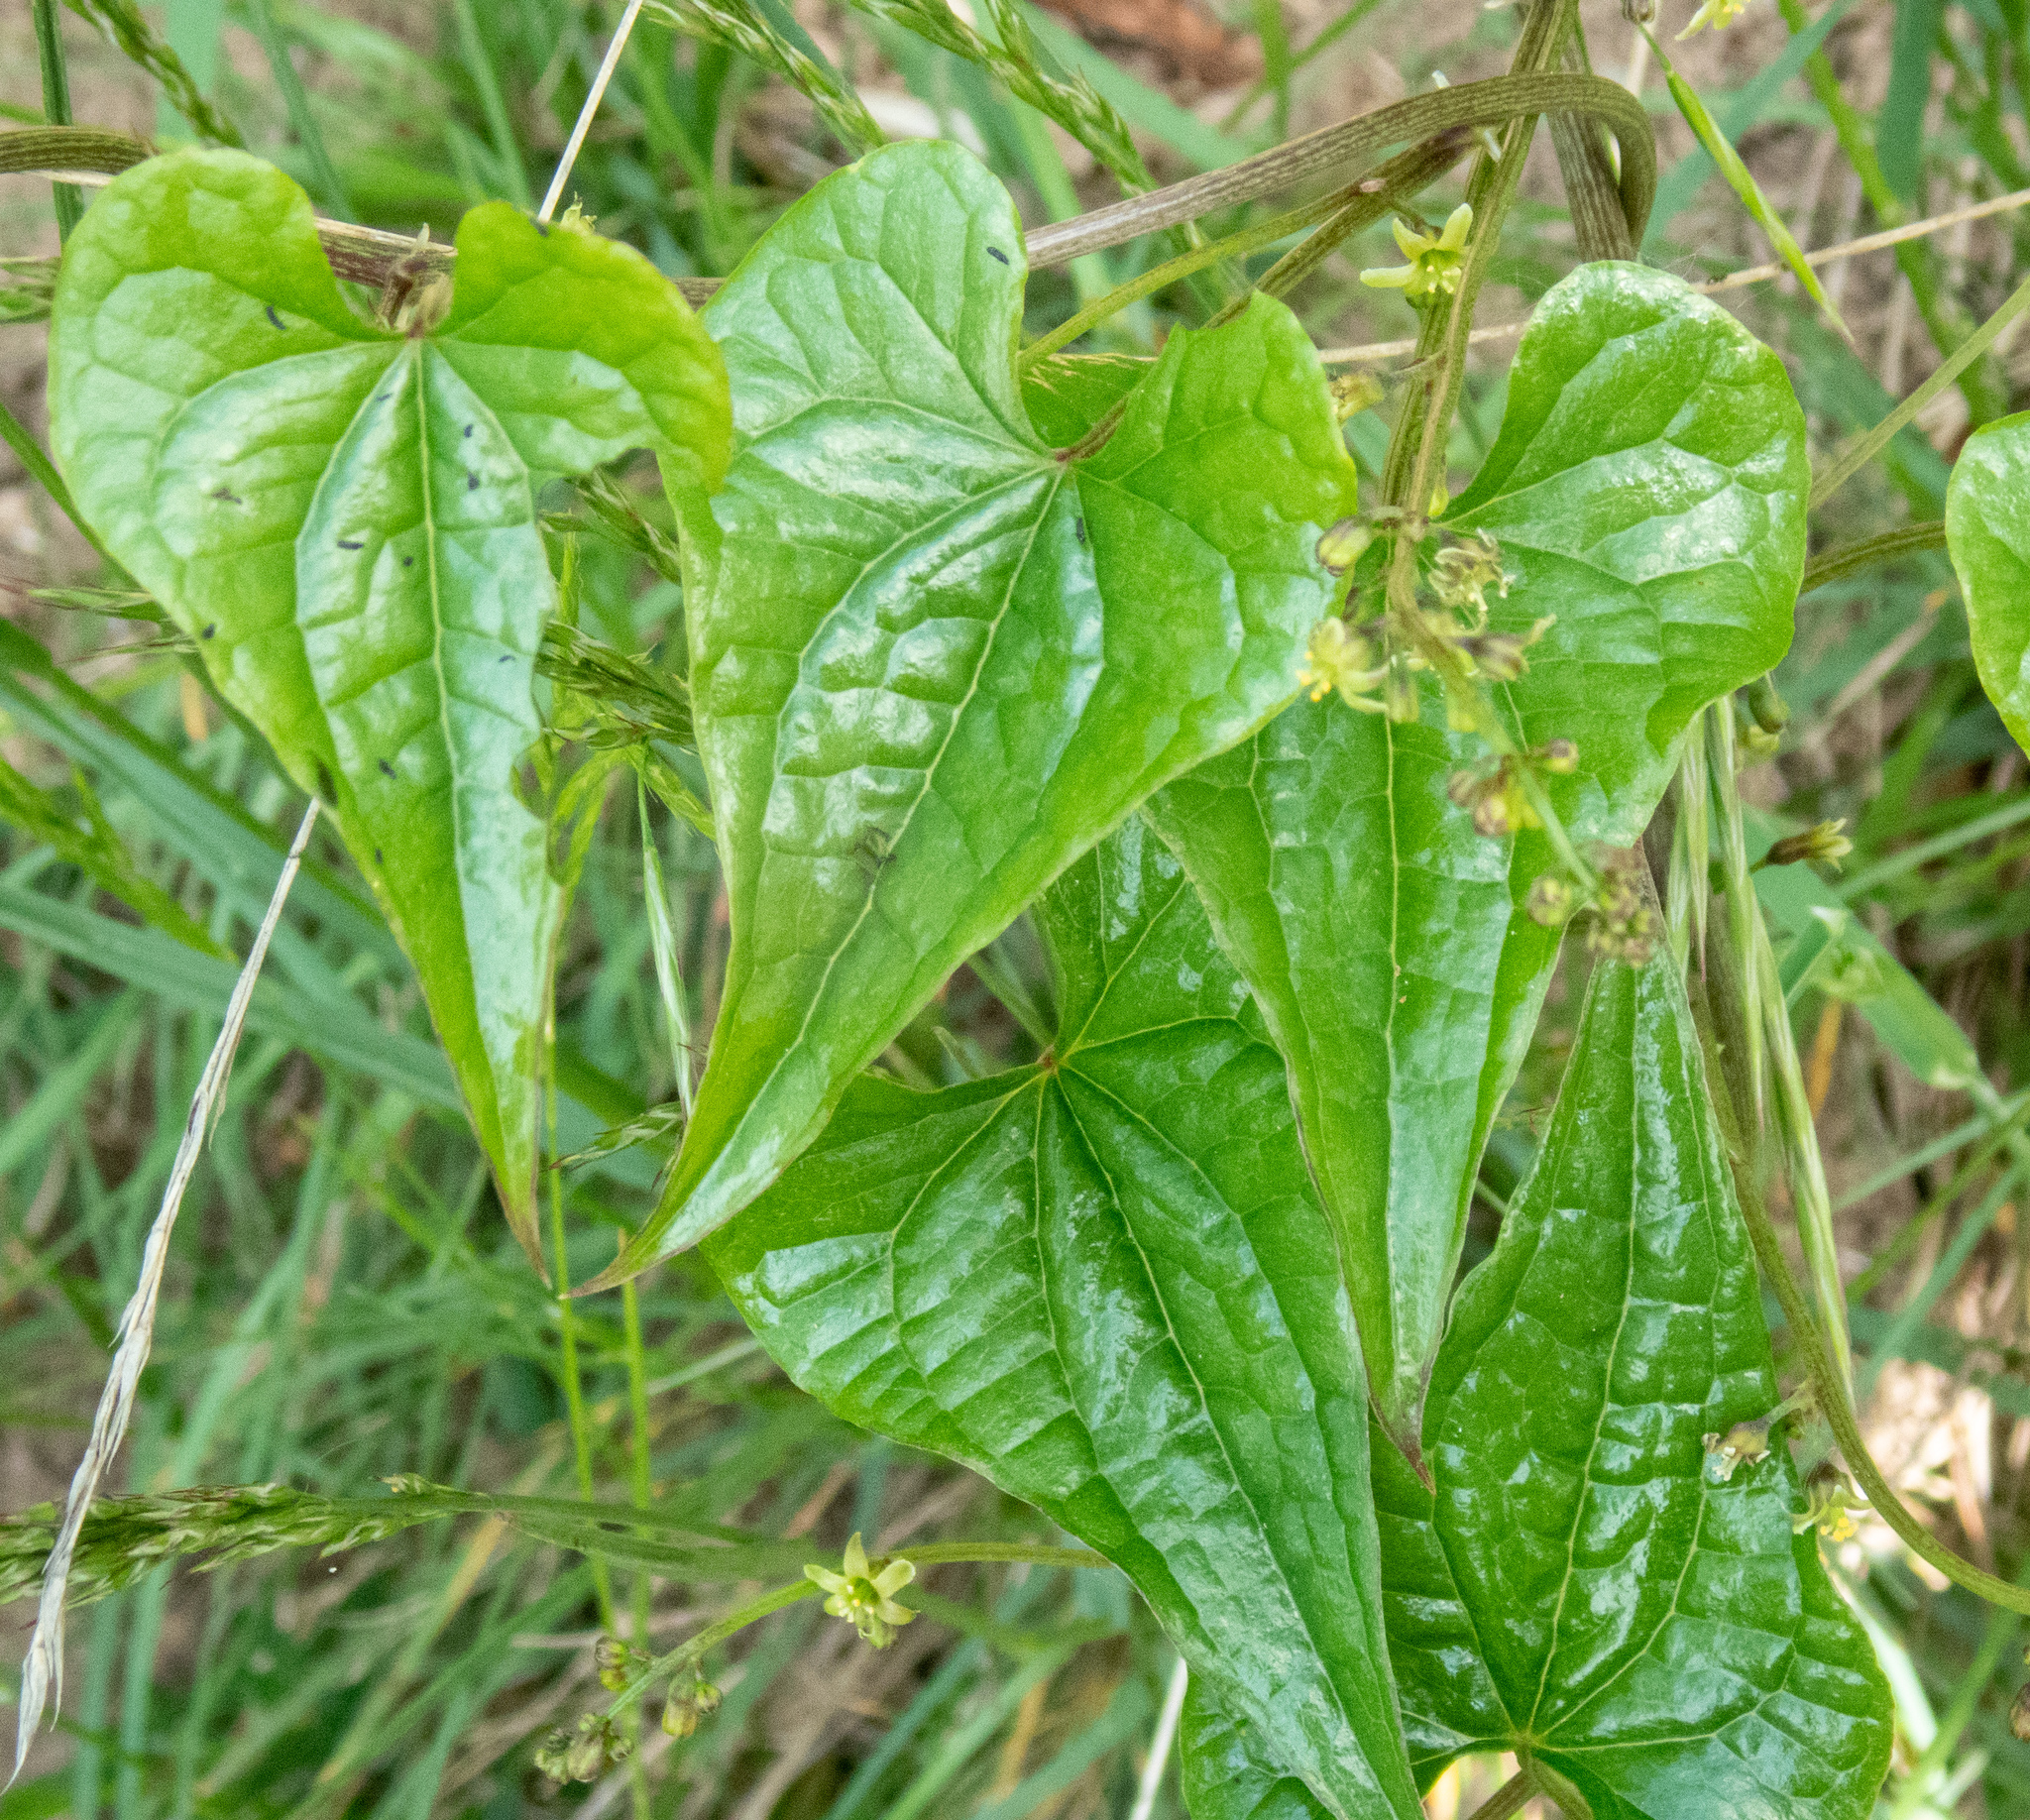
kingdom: Plantae
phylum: Tracheophyta
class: Liliopsida
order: Dioscoreales
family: Dioscoreaceae
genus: Dioscorea
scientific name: Dioscorea communis
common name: Black-bindweed
